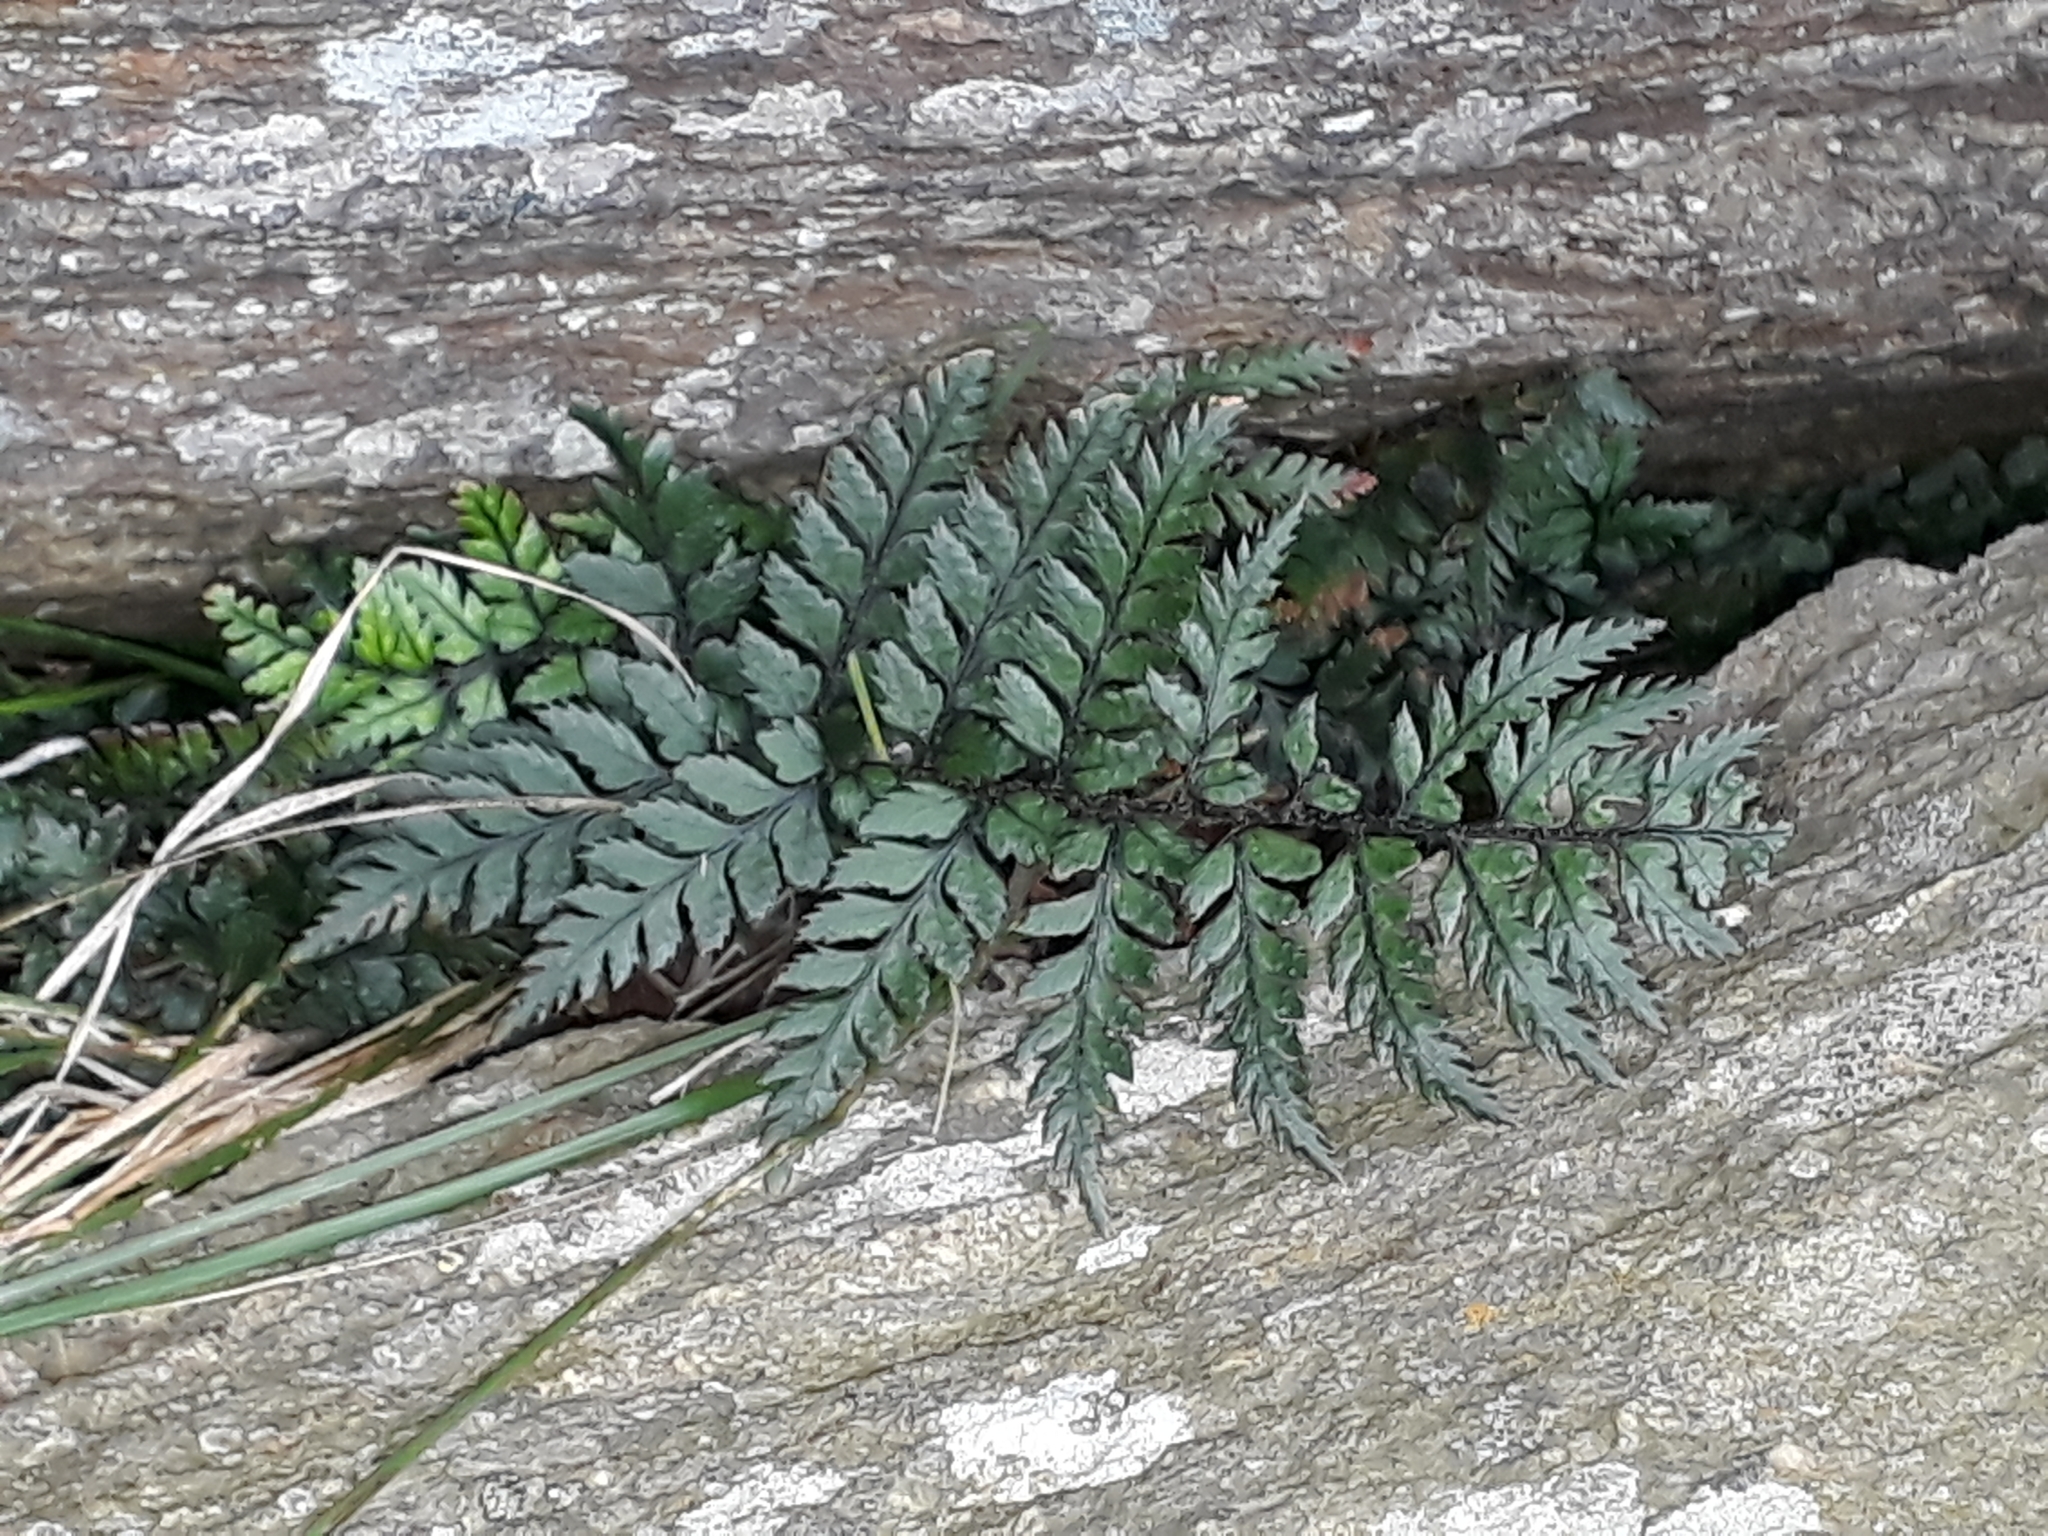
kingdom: Plantae
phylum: Tracheophyta
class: Polypodiopsida
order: Polypodiales
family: Dryopteridaceae
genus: Polystichum
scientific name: Polystichum neozelandicum
